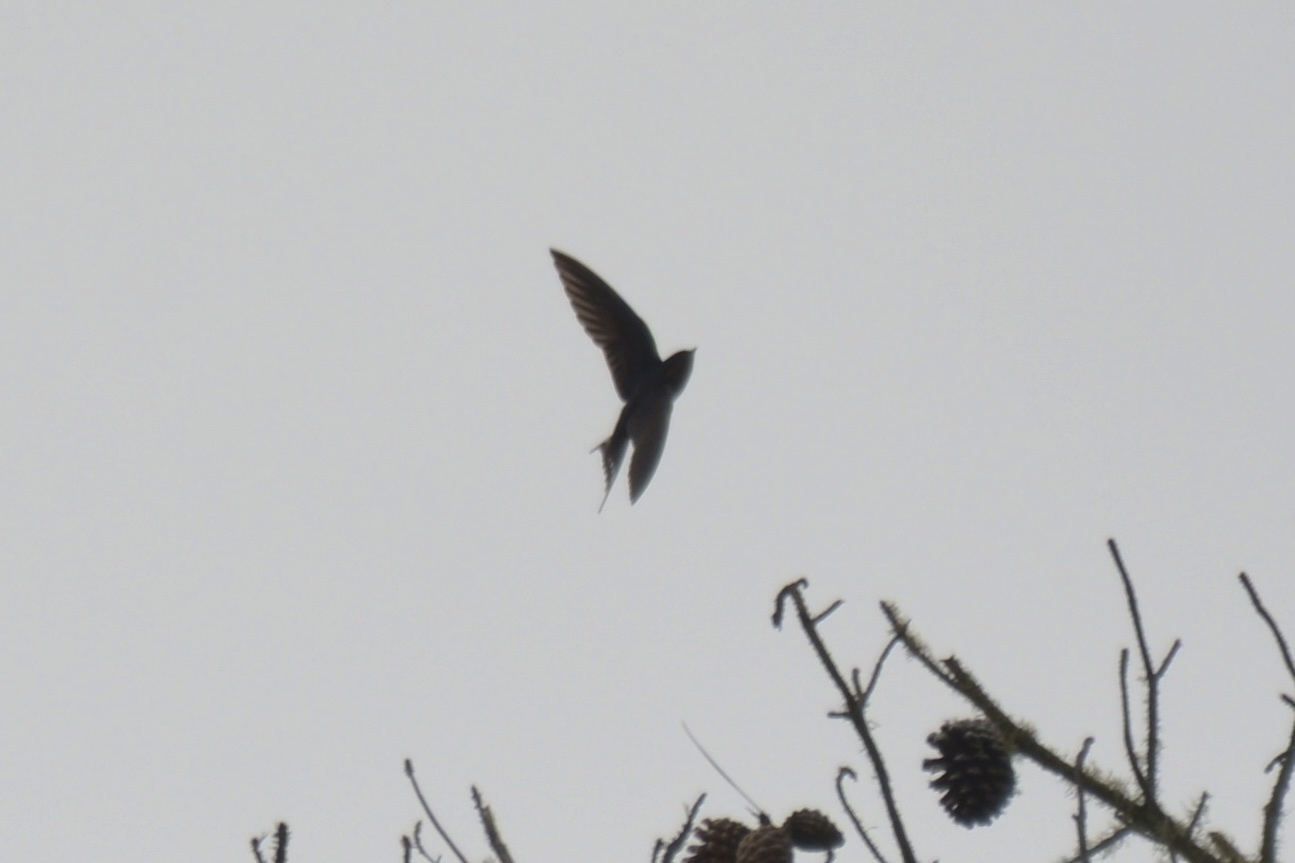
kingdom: Animalia
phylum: Chordata
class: Aves
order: Passeriformes
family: Hirundinidae
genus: Hirundo
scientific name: Hirundo rustica
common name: Barn swallow
